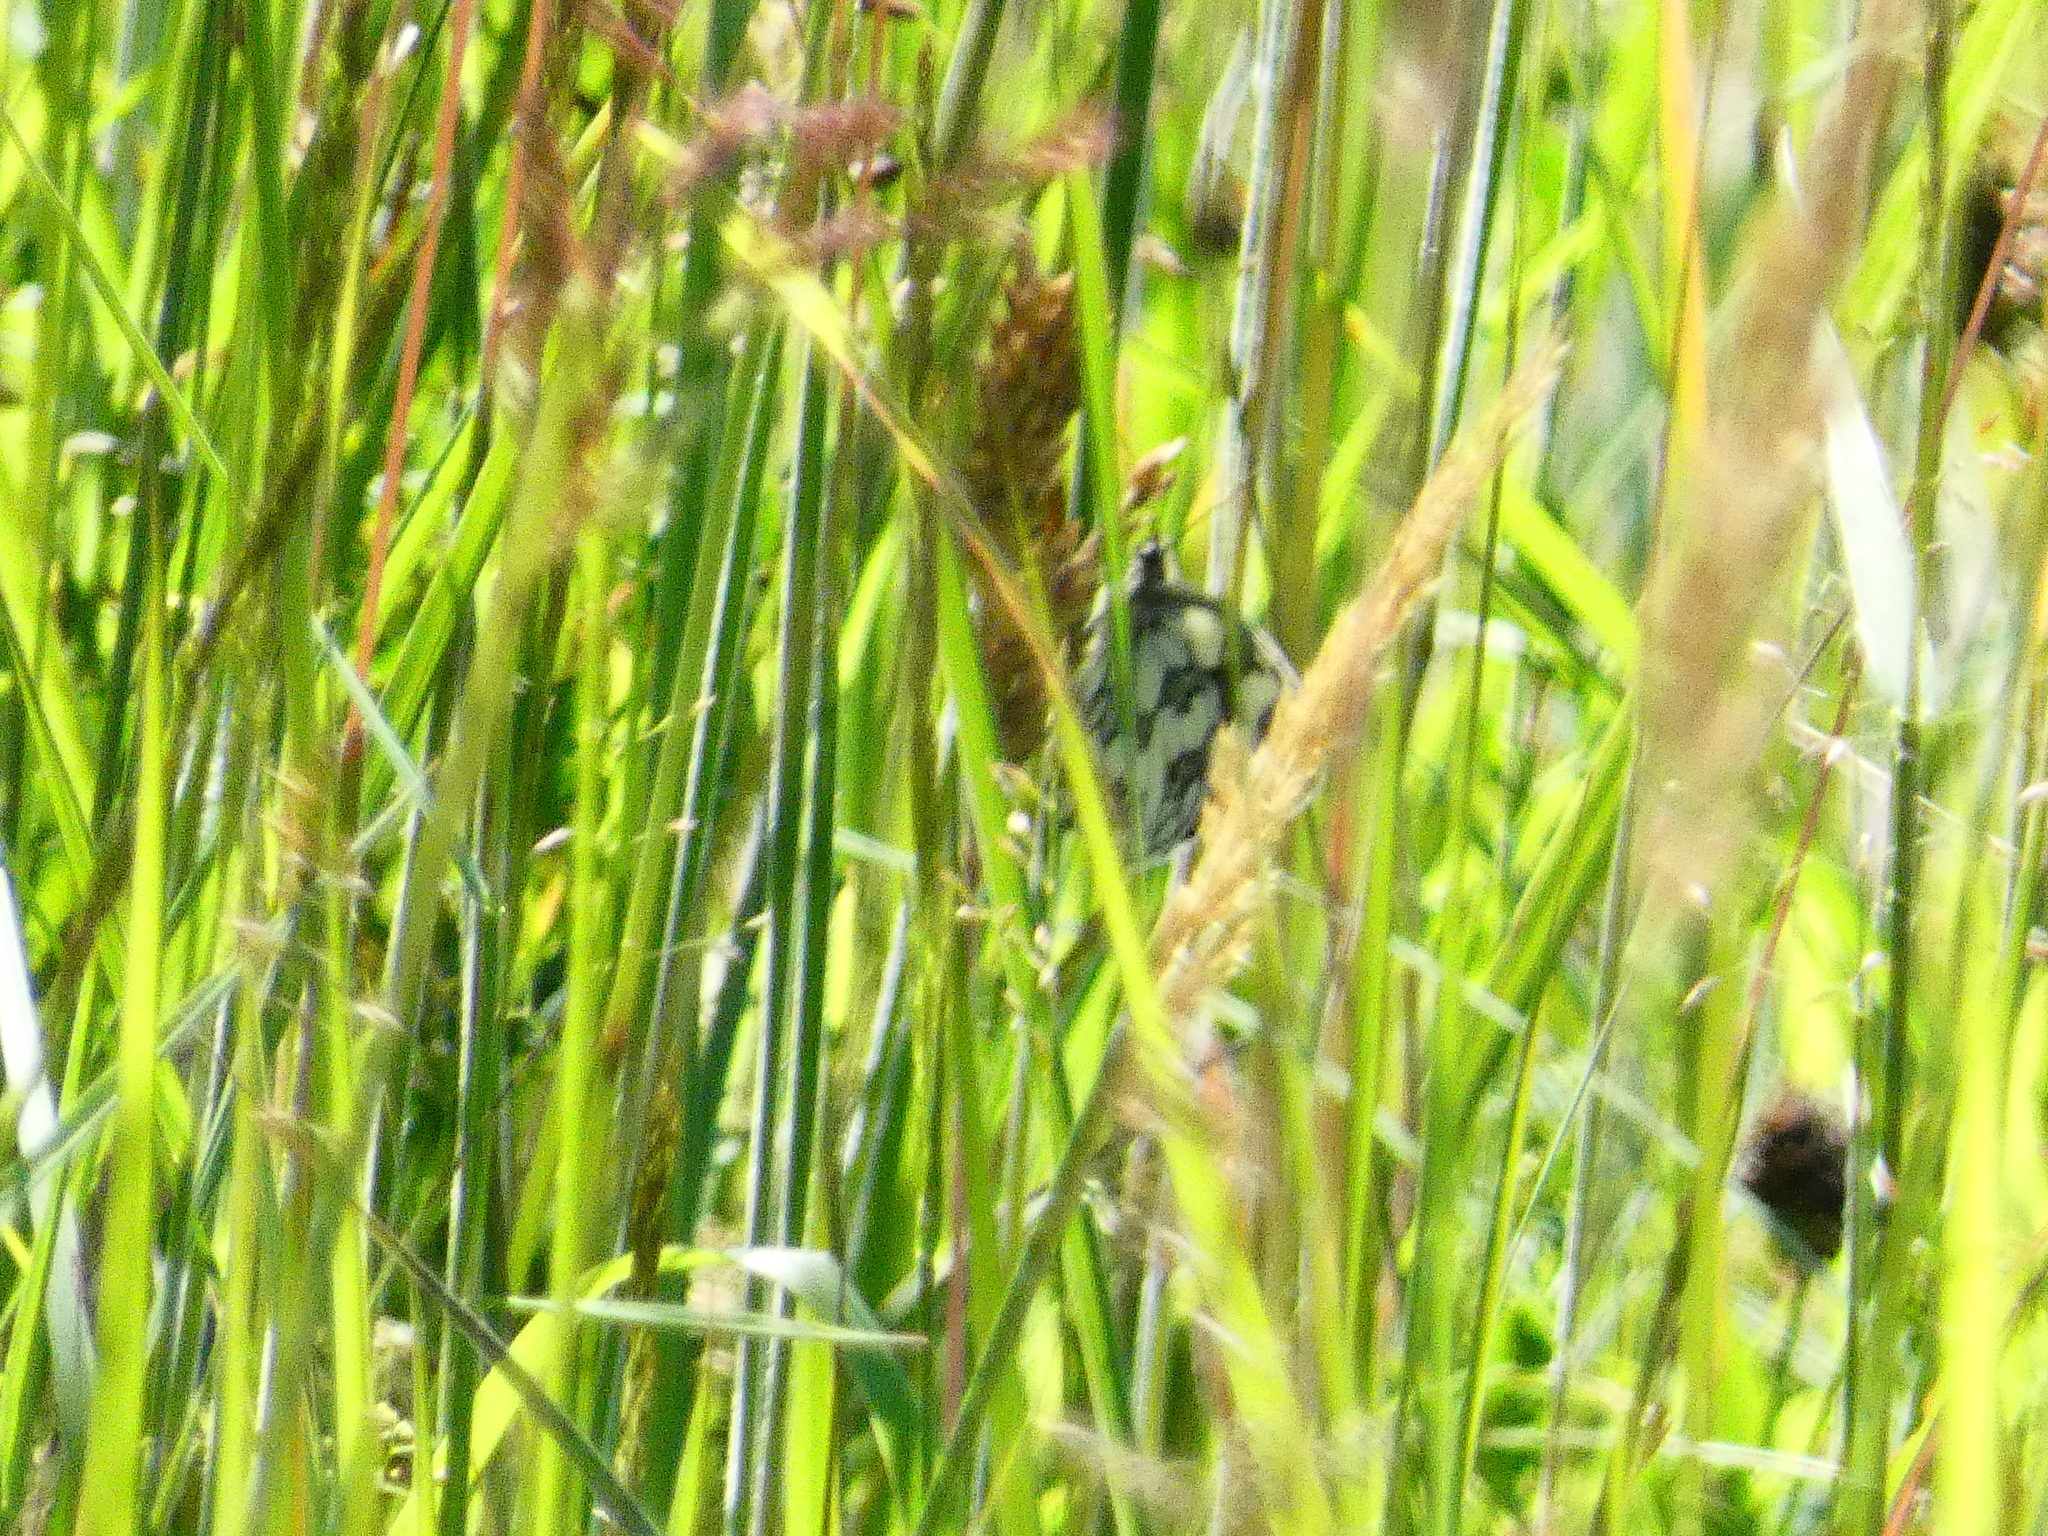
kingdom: Animalia
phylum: Arthropoda
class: Insecta
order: Lepidoptera
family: Nymphalidae
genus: Melanargia
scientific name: Melanargia galathea
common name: Marbled white
